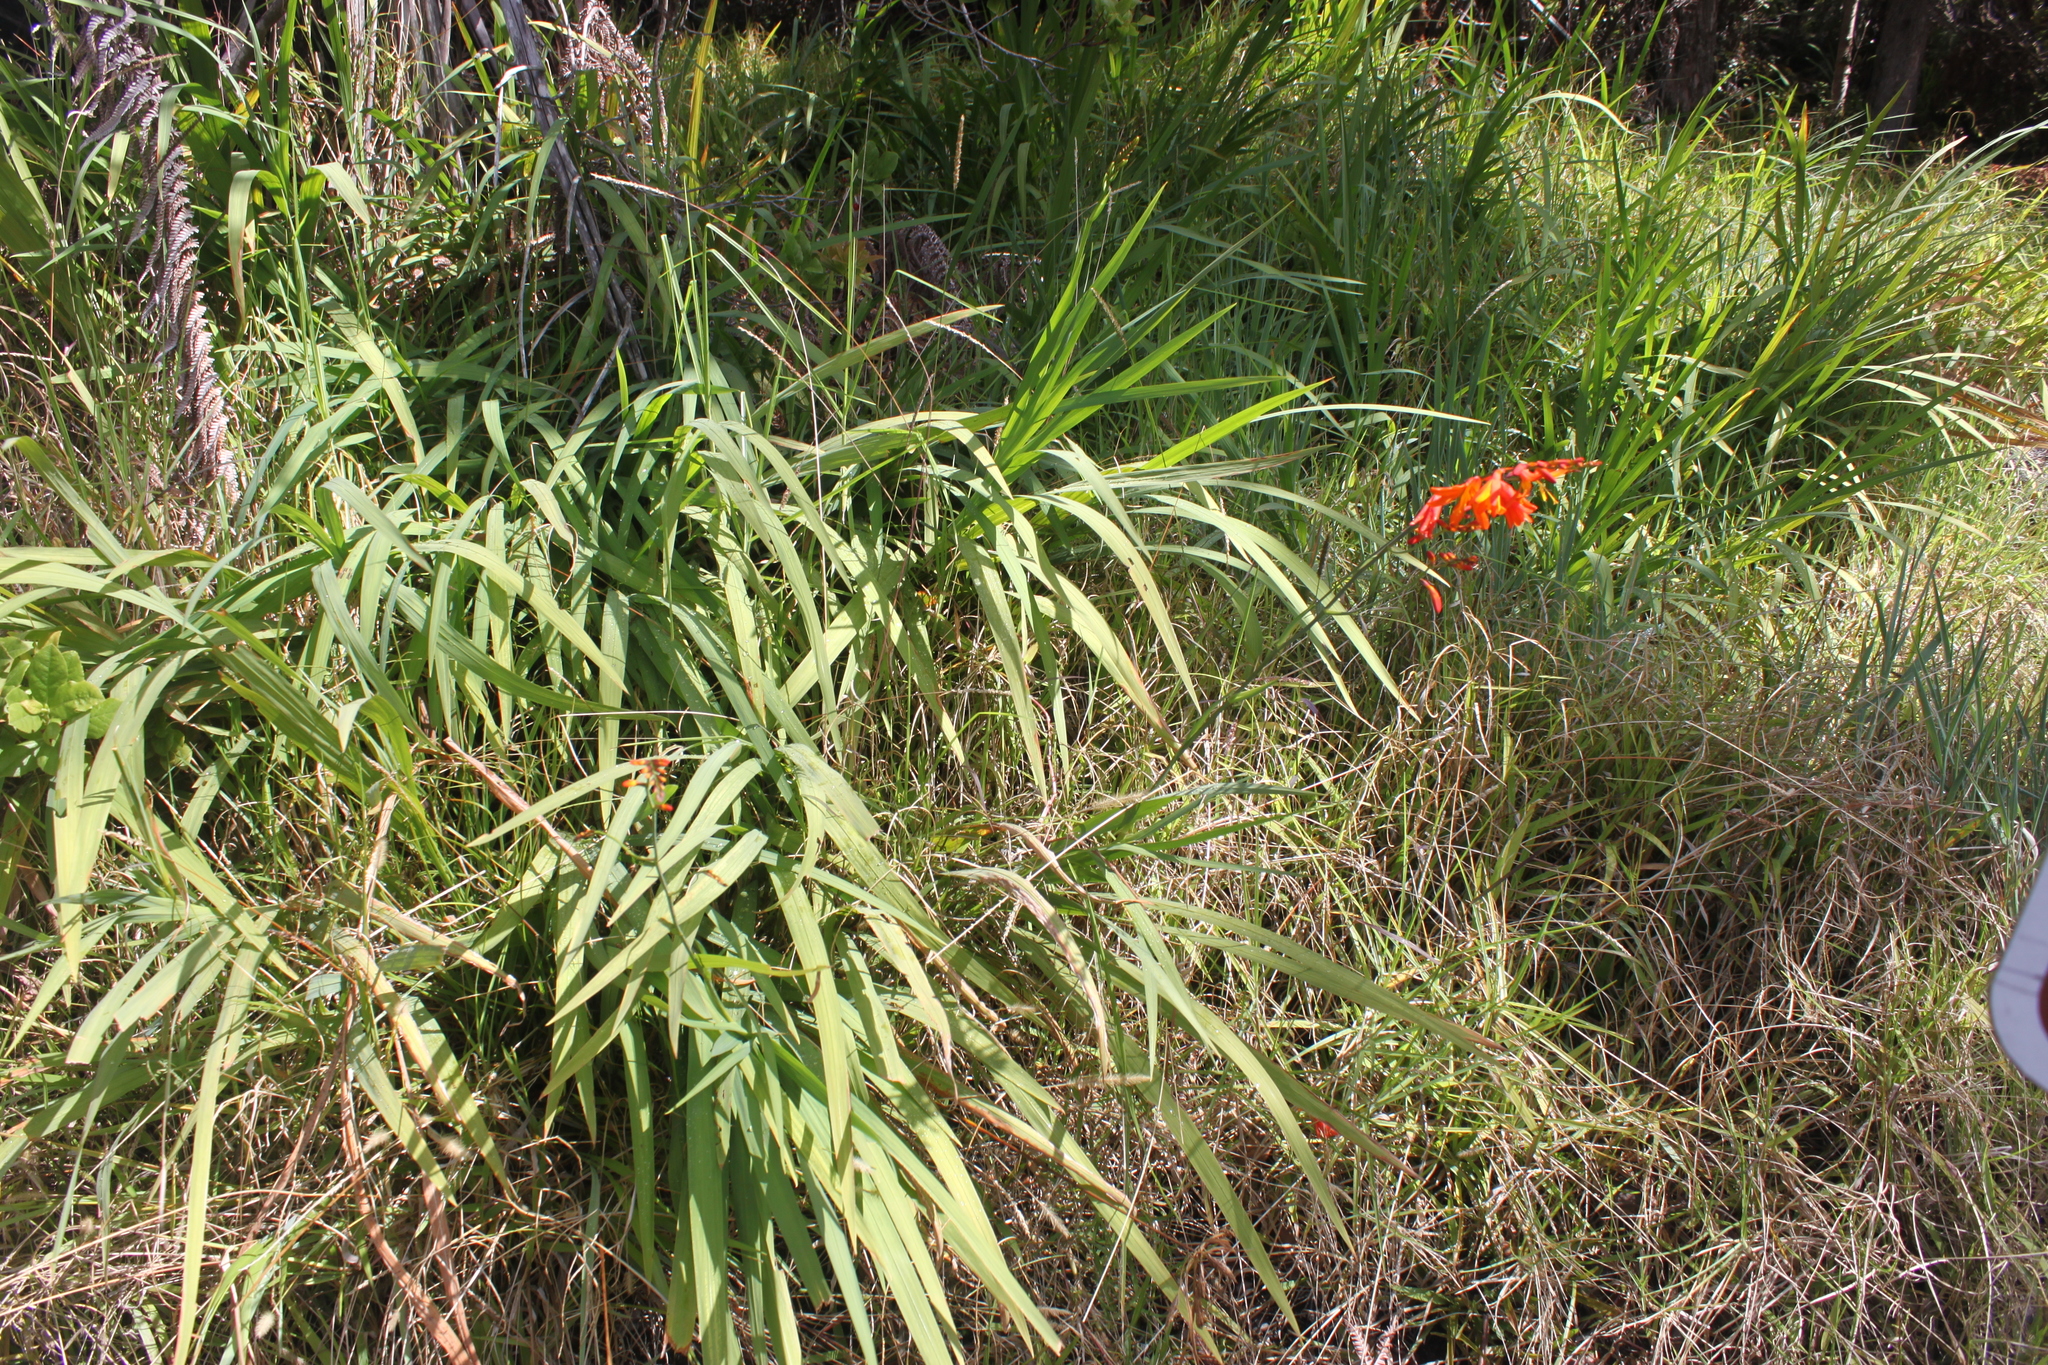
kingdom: Plantae
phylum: Tracheophyta
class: Liliopsida
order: Asparagales
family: Iridaceae
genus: Crocosmia
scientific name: Crocosmia crocosmiiflora
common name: Montbretia
